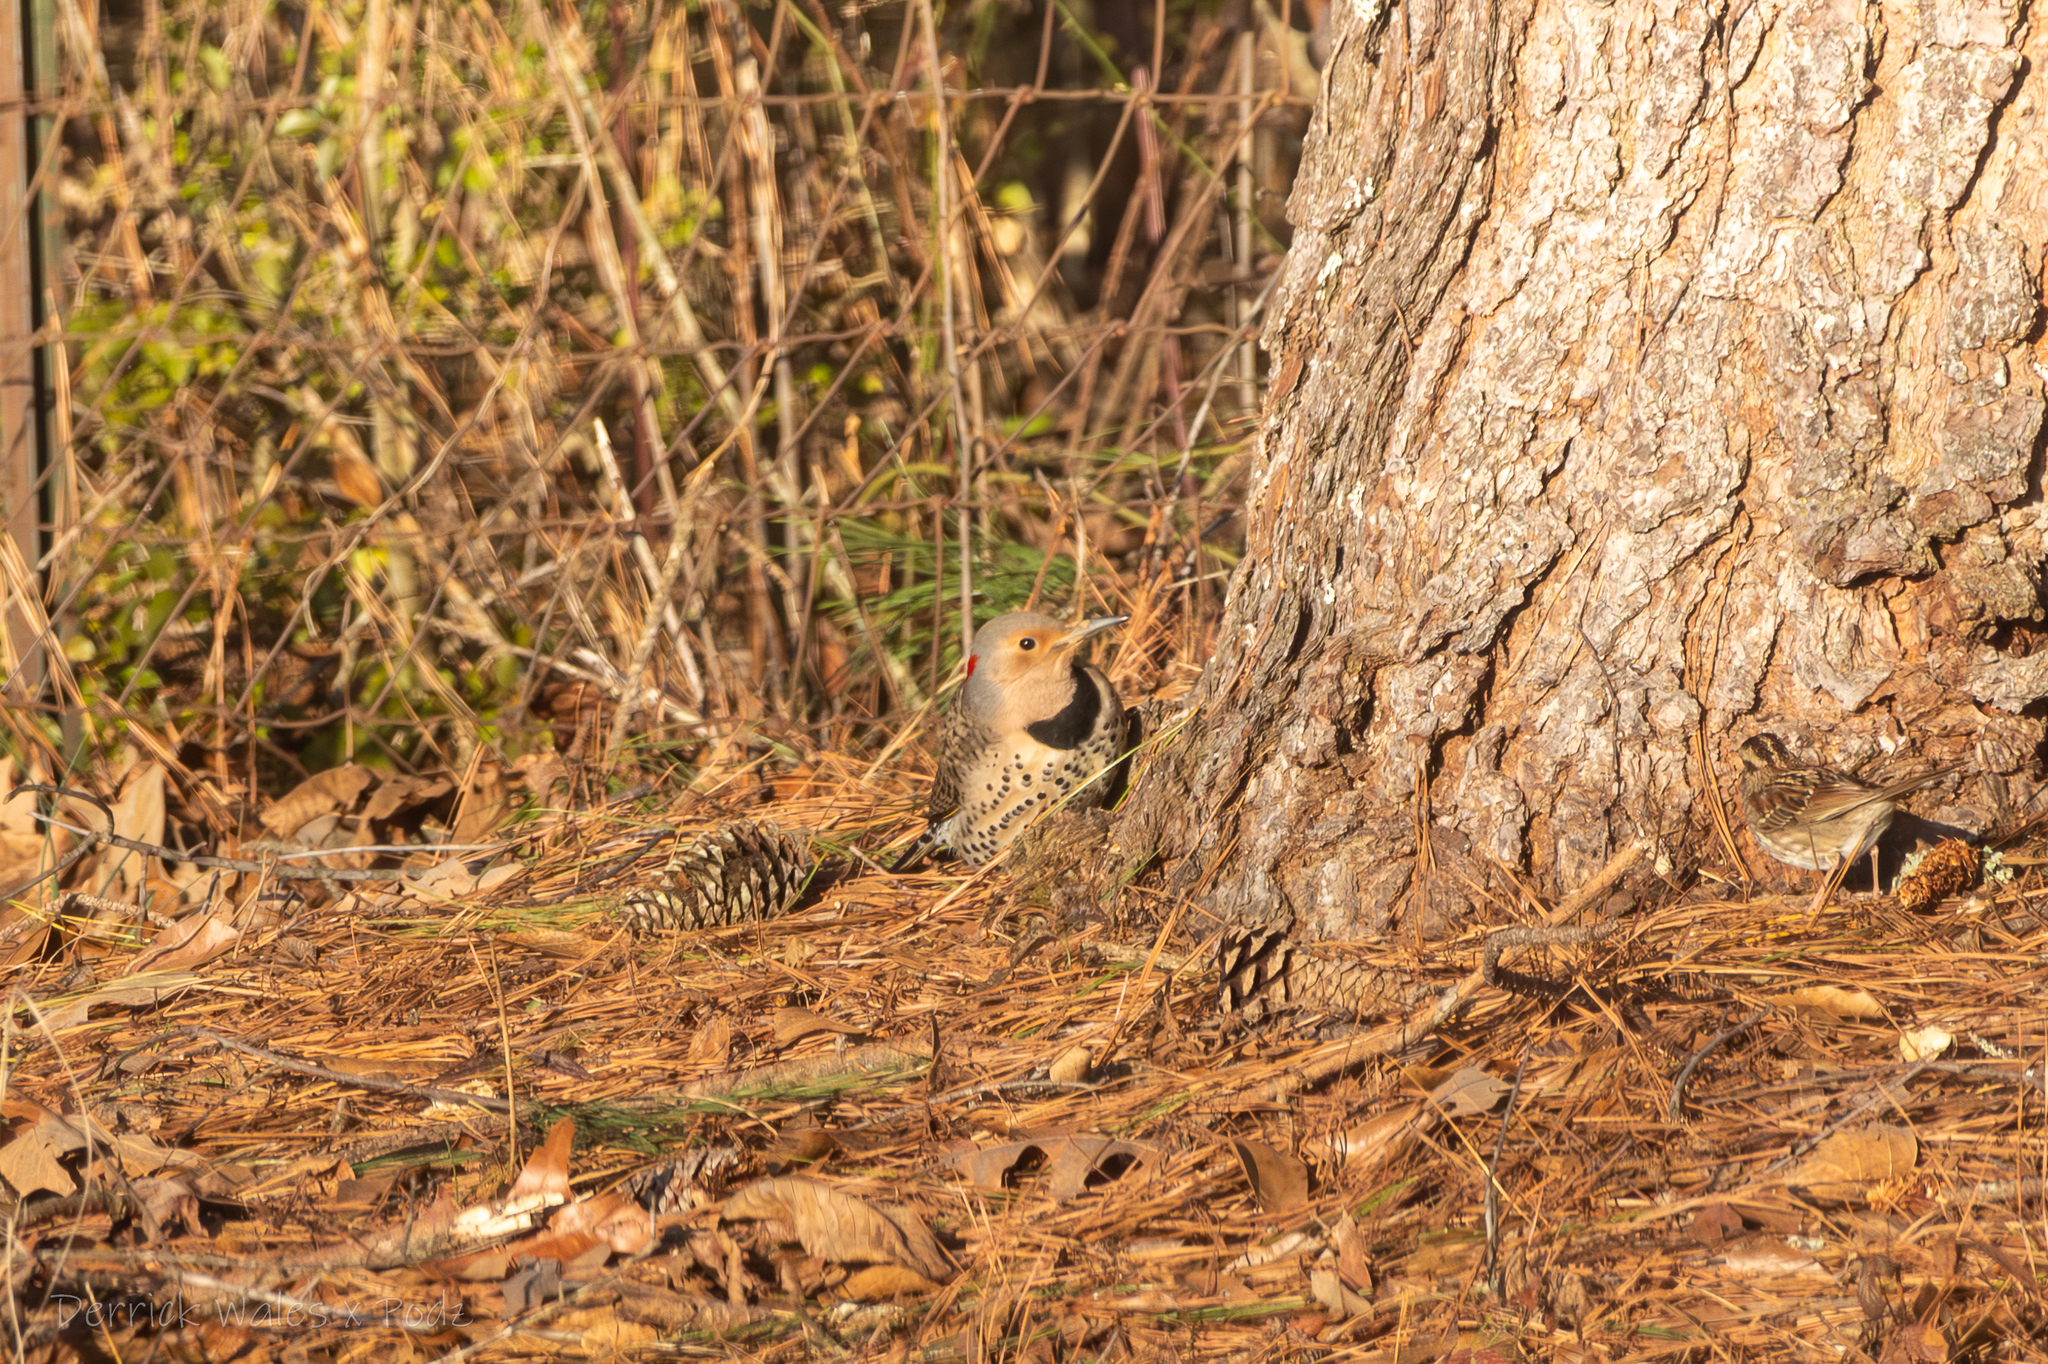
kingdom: Animalia
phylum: Chordata
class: Aves
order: Piciformes
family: Picidae
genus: Colaptes
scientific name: Colaptes auratus
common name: Northern flicker
